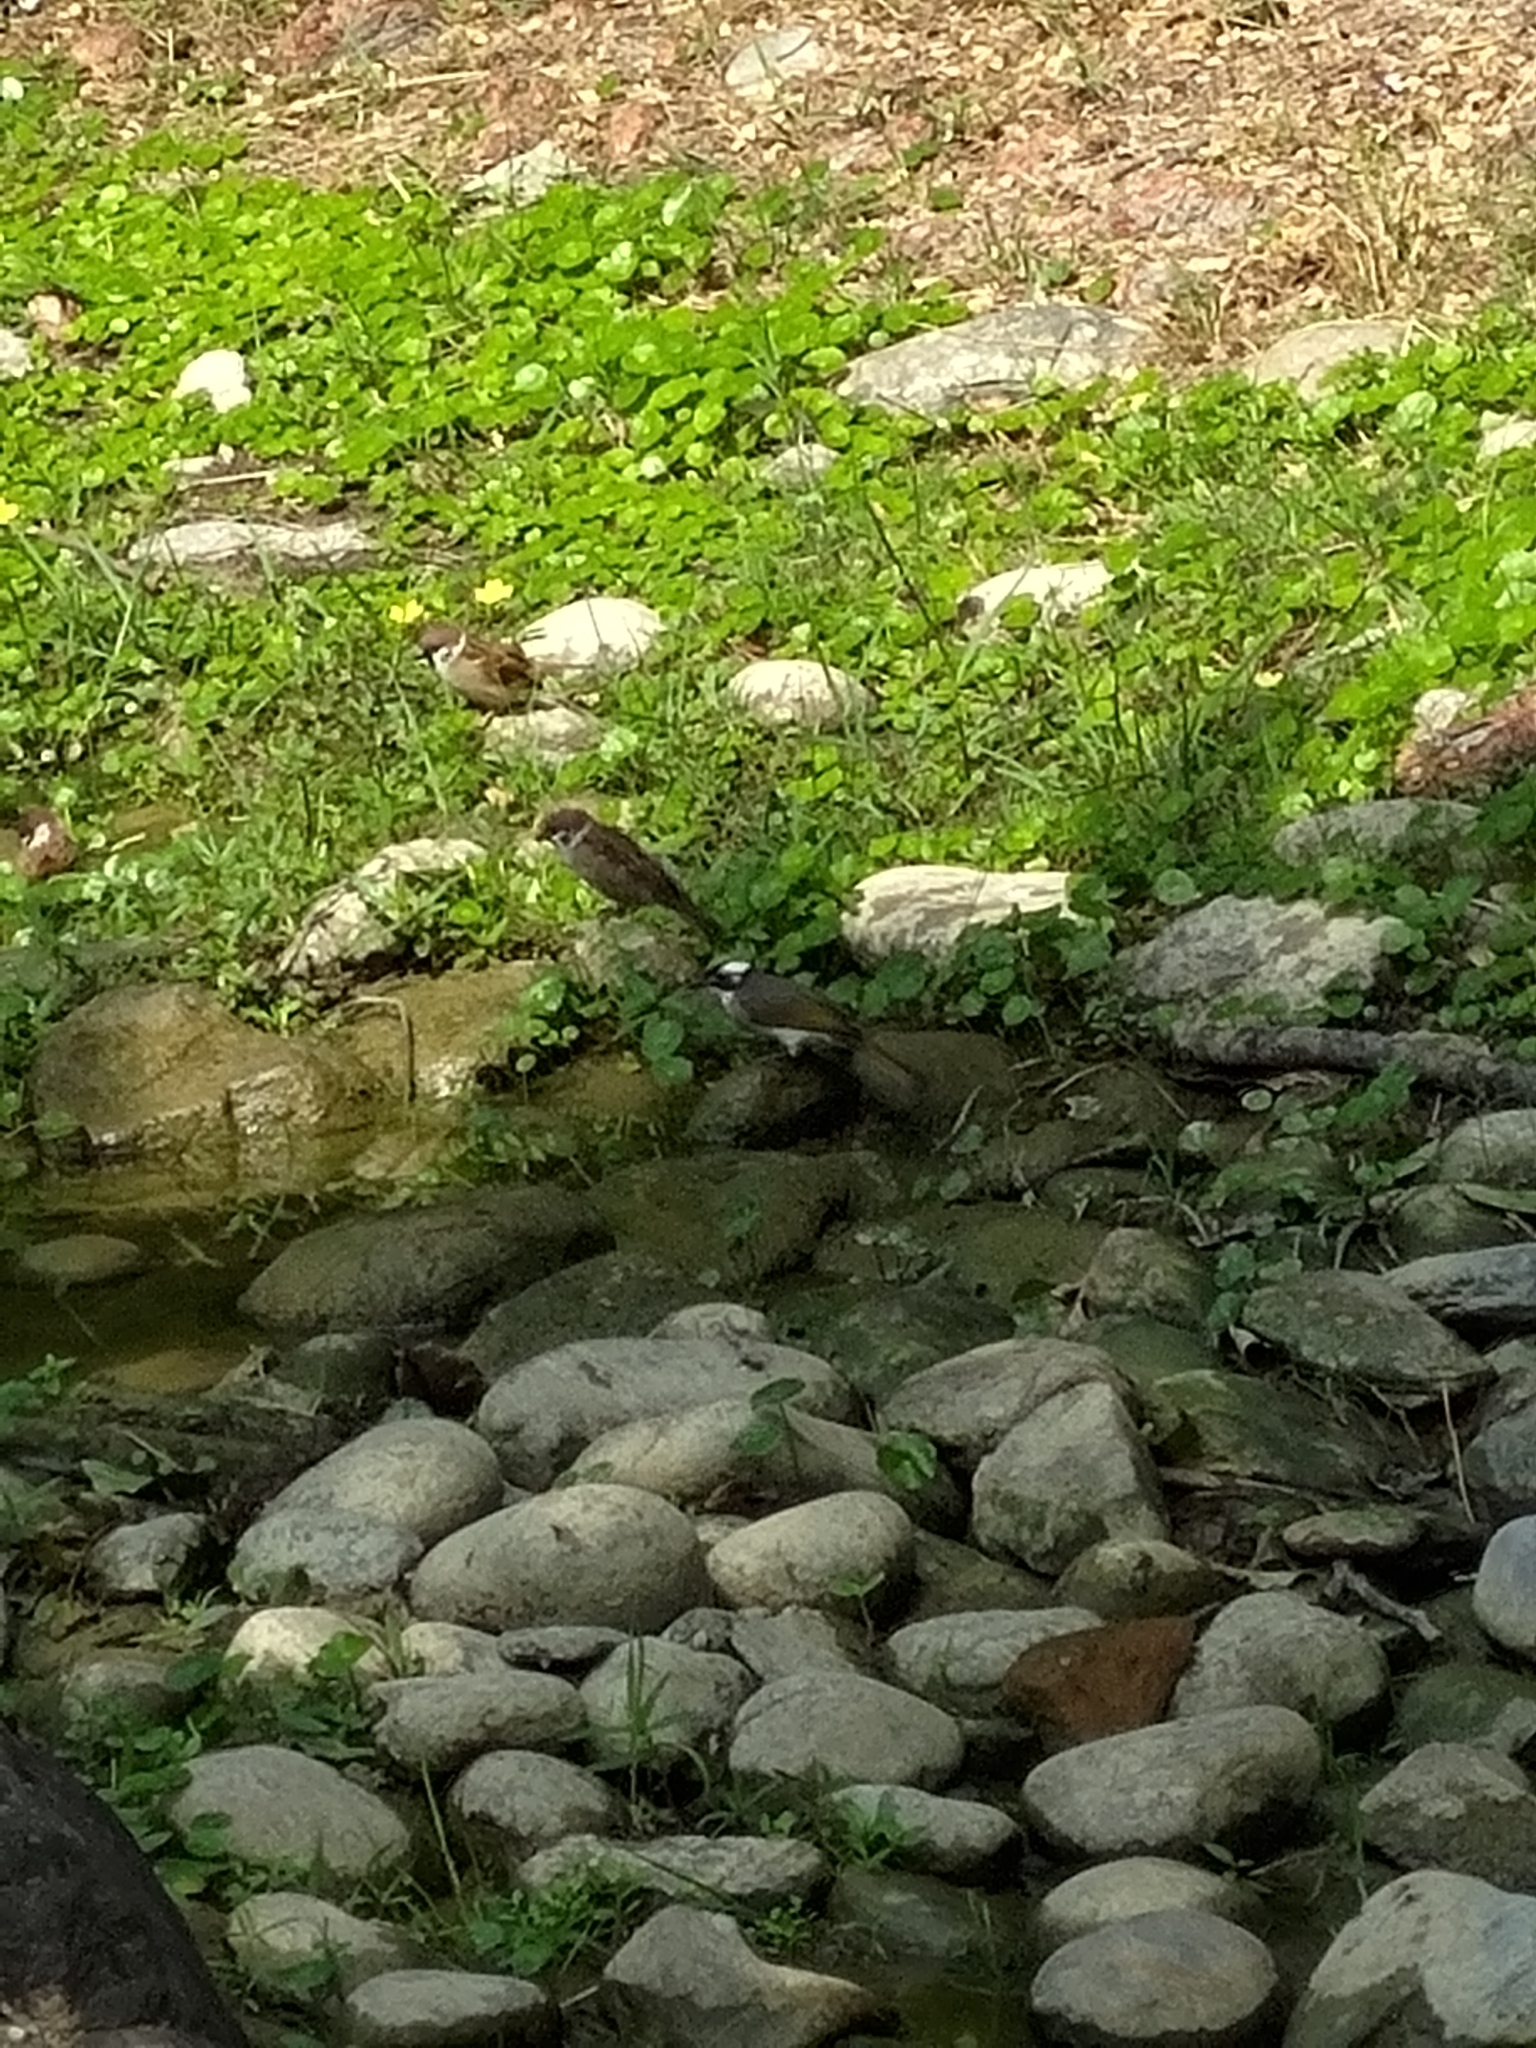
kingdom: Animalia
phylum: Chordata
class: Aves
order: Passeriformes
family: Pycnonotidae
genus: Pycnonotus
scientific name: Pycnonotus sinensis
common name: Light-vented bulbul
